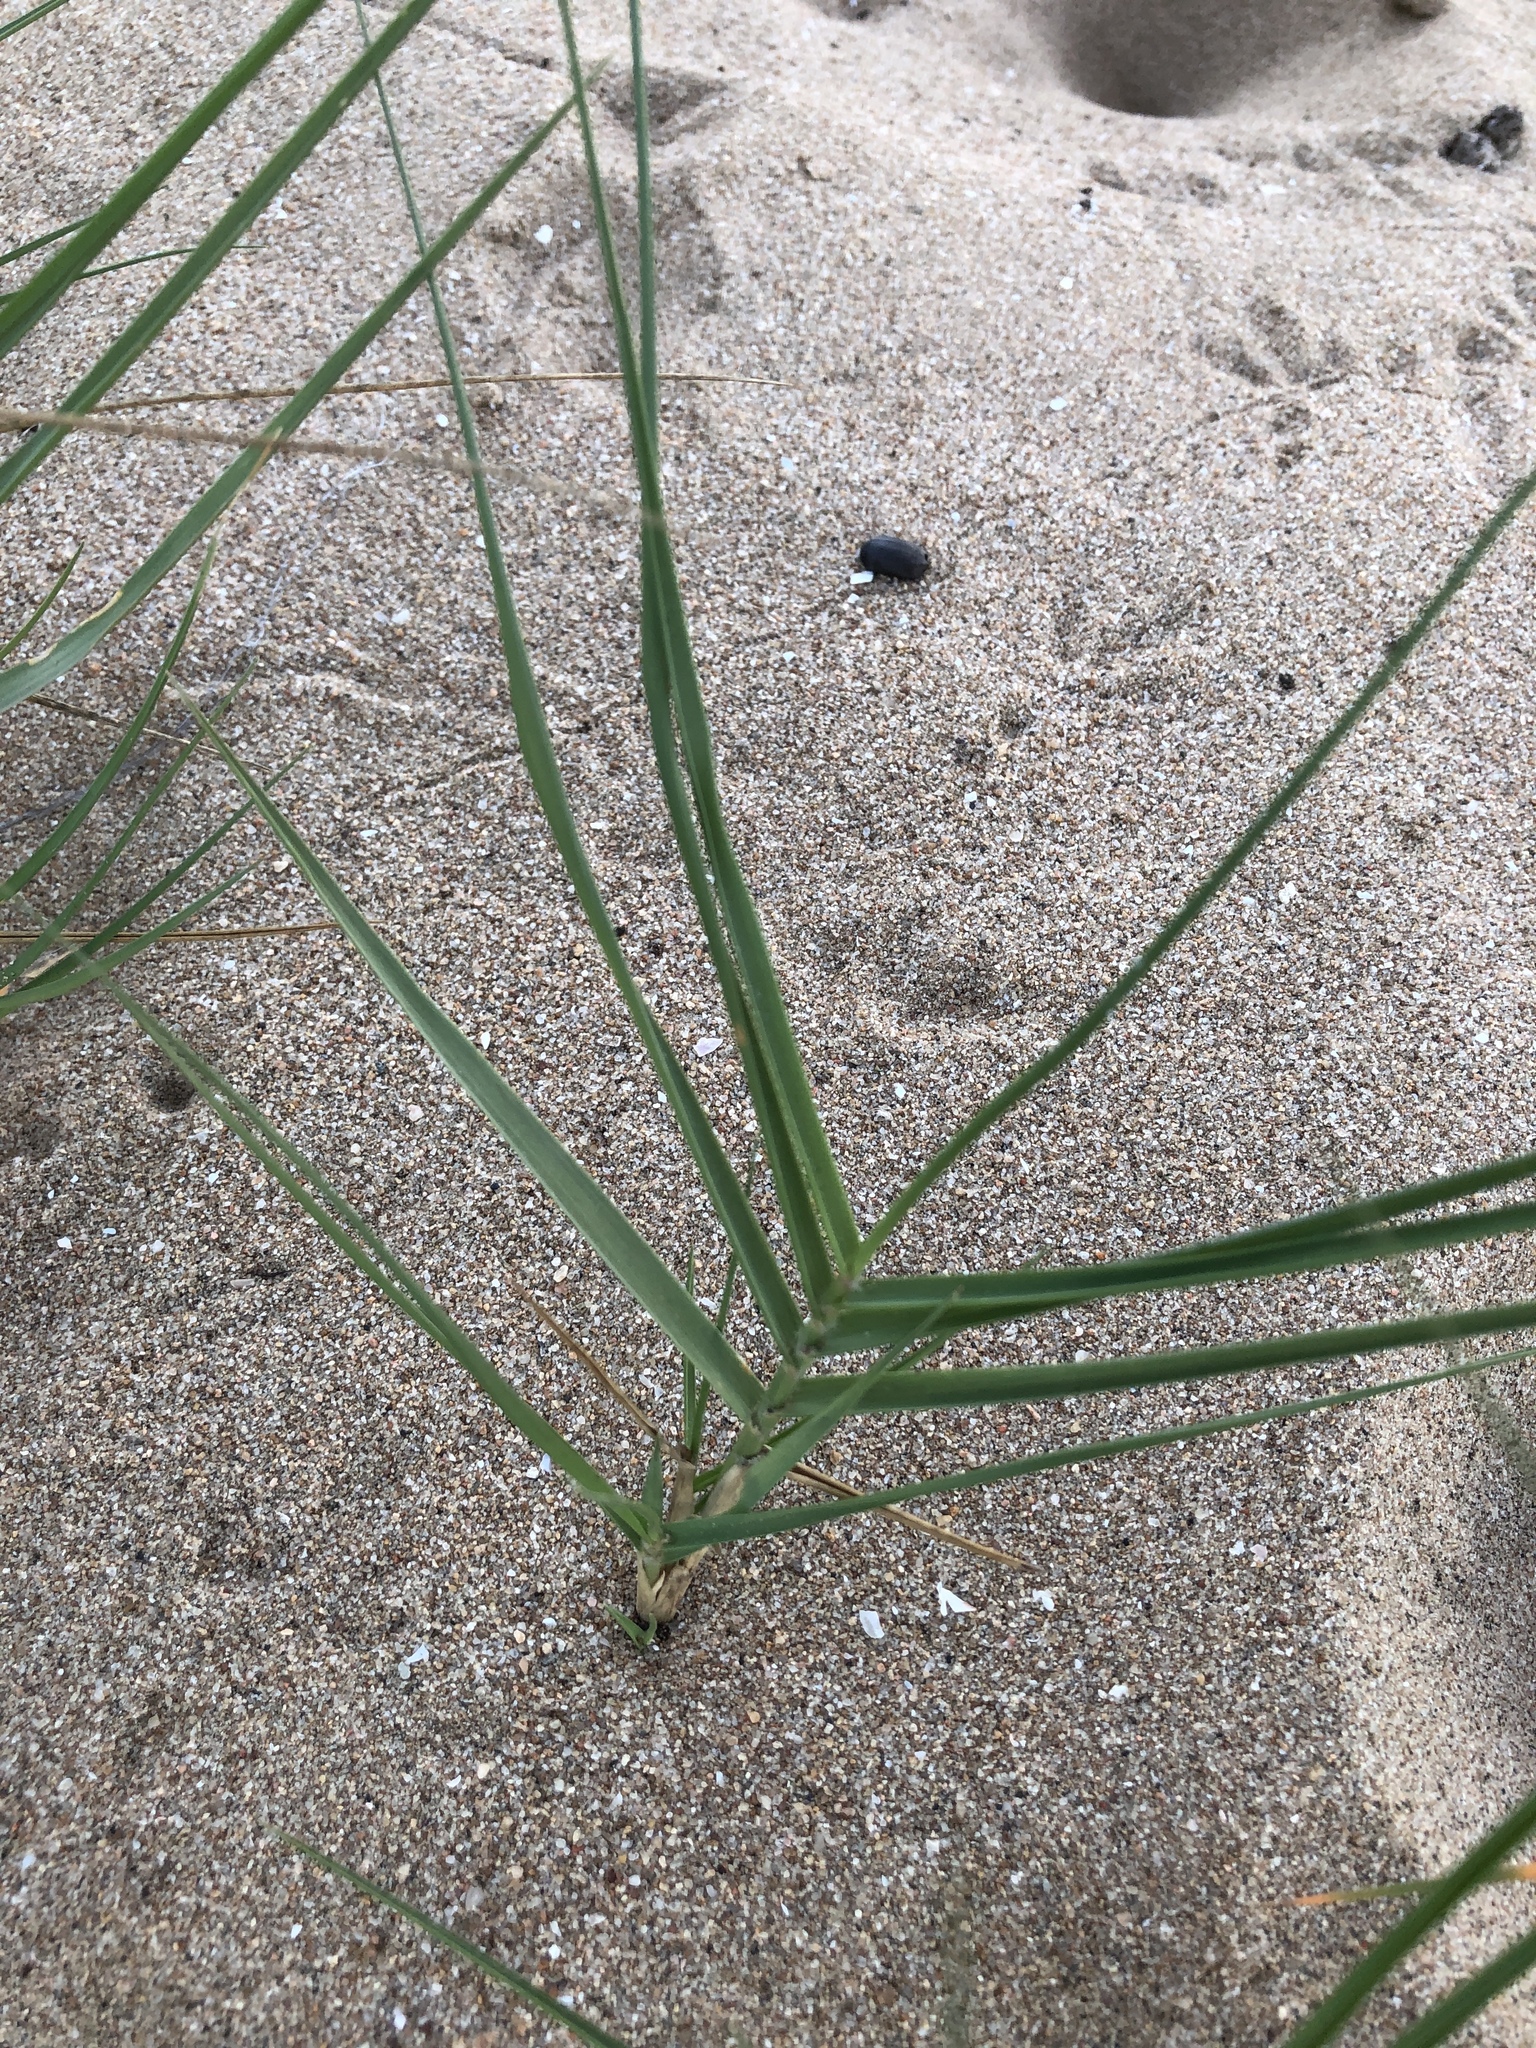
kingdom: Plantae
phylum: Tracheophyta
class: Liliopsida
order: Poales
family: Poaceae
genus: Sporobolus
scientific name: Sporobolus virginicus
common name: Beach dropseed
